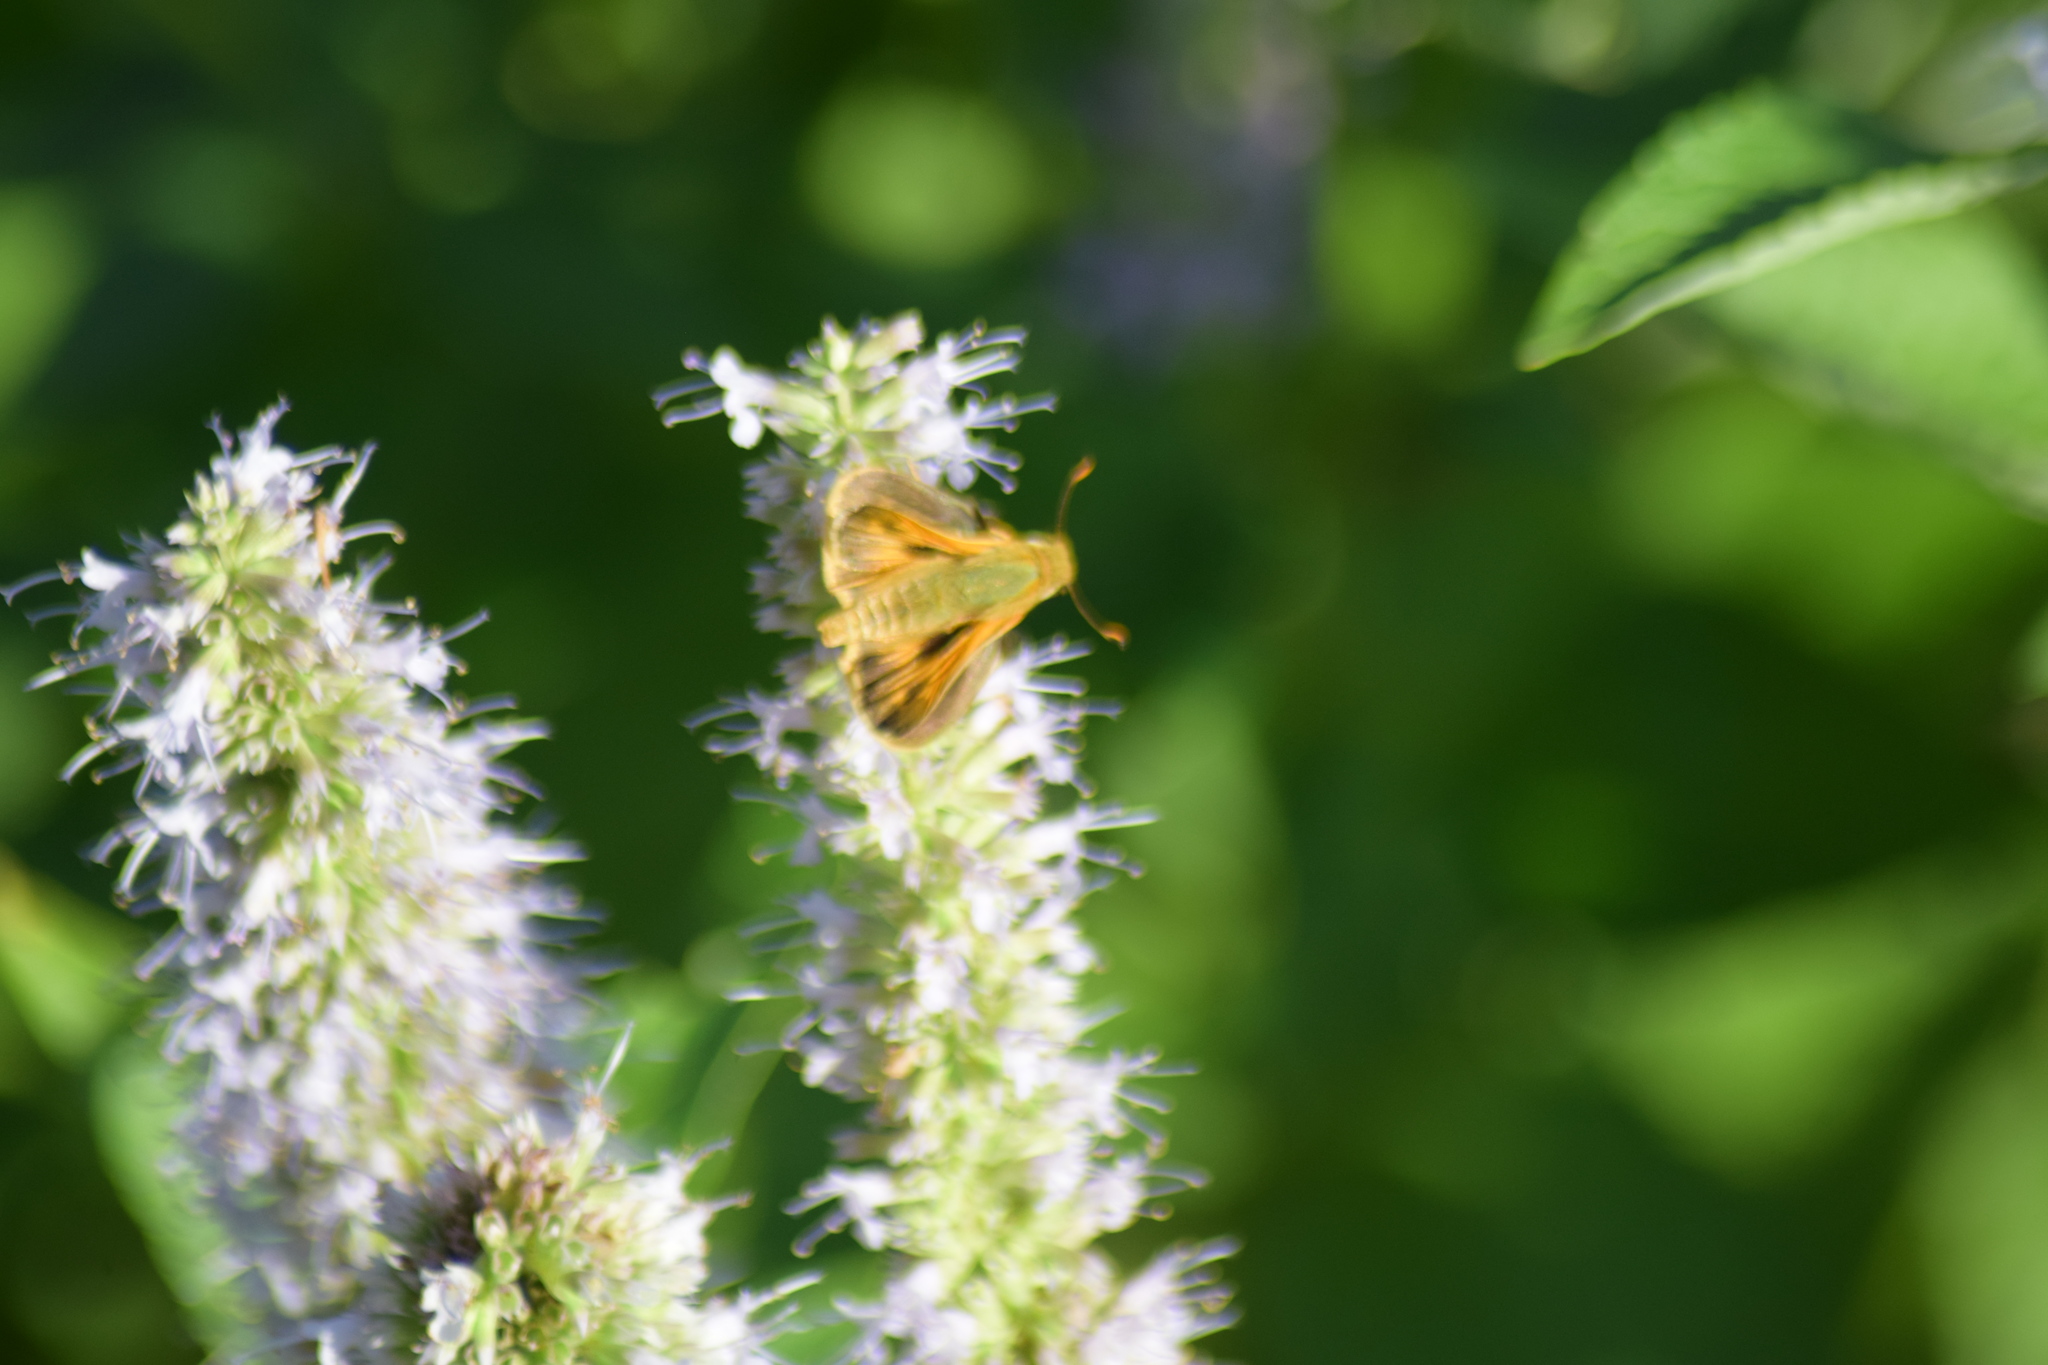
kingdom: Animalia
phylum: Arthropoda
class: Insecta
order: Lepidoptera
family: Hesperiidae
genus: Atalopedes
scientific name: Atalopedes
